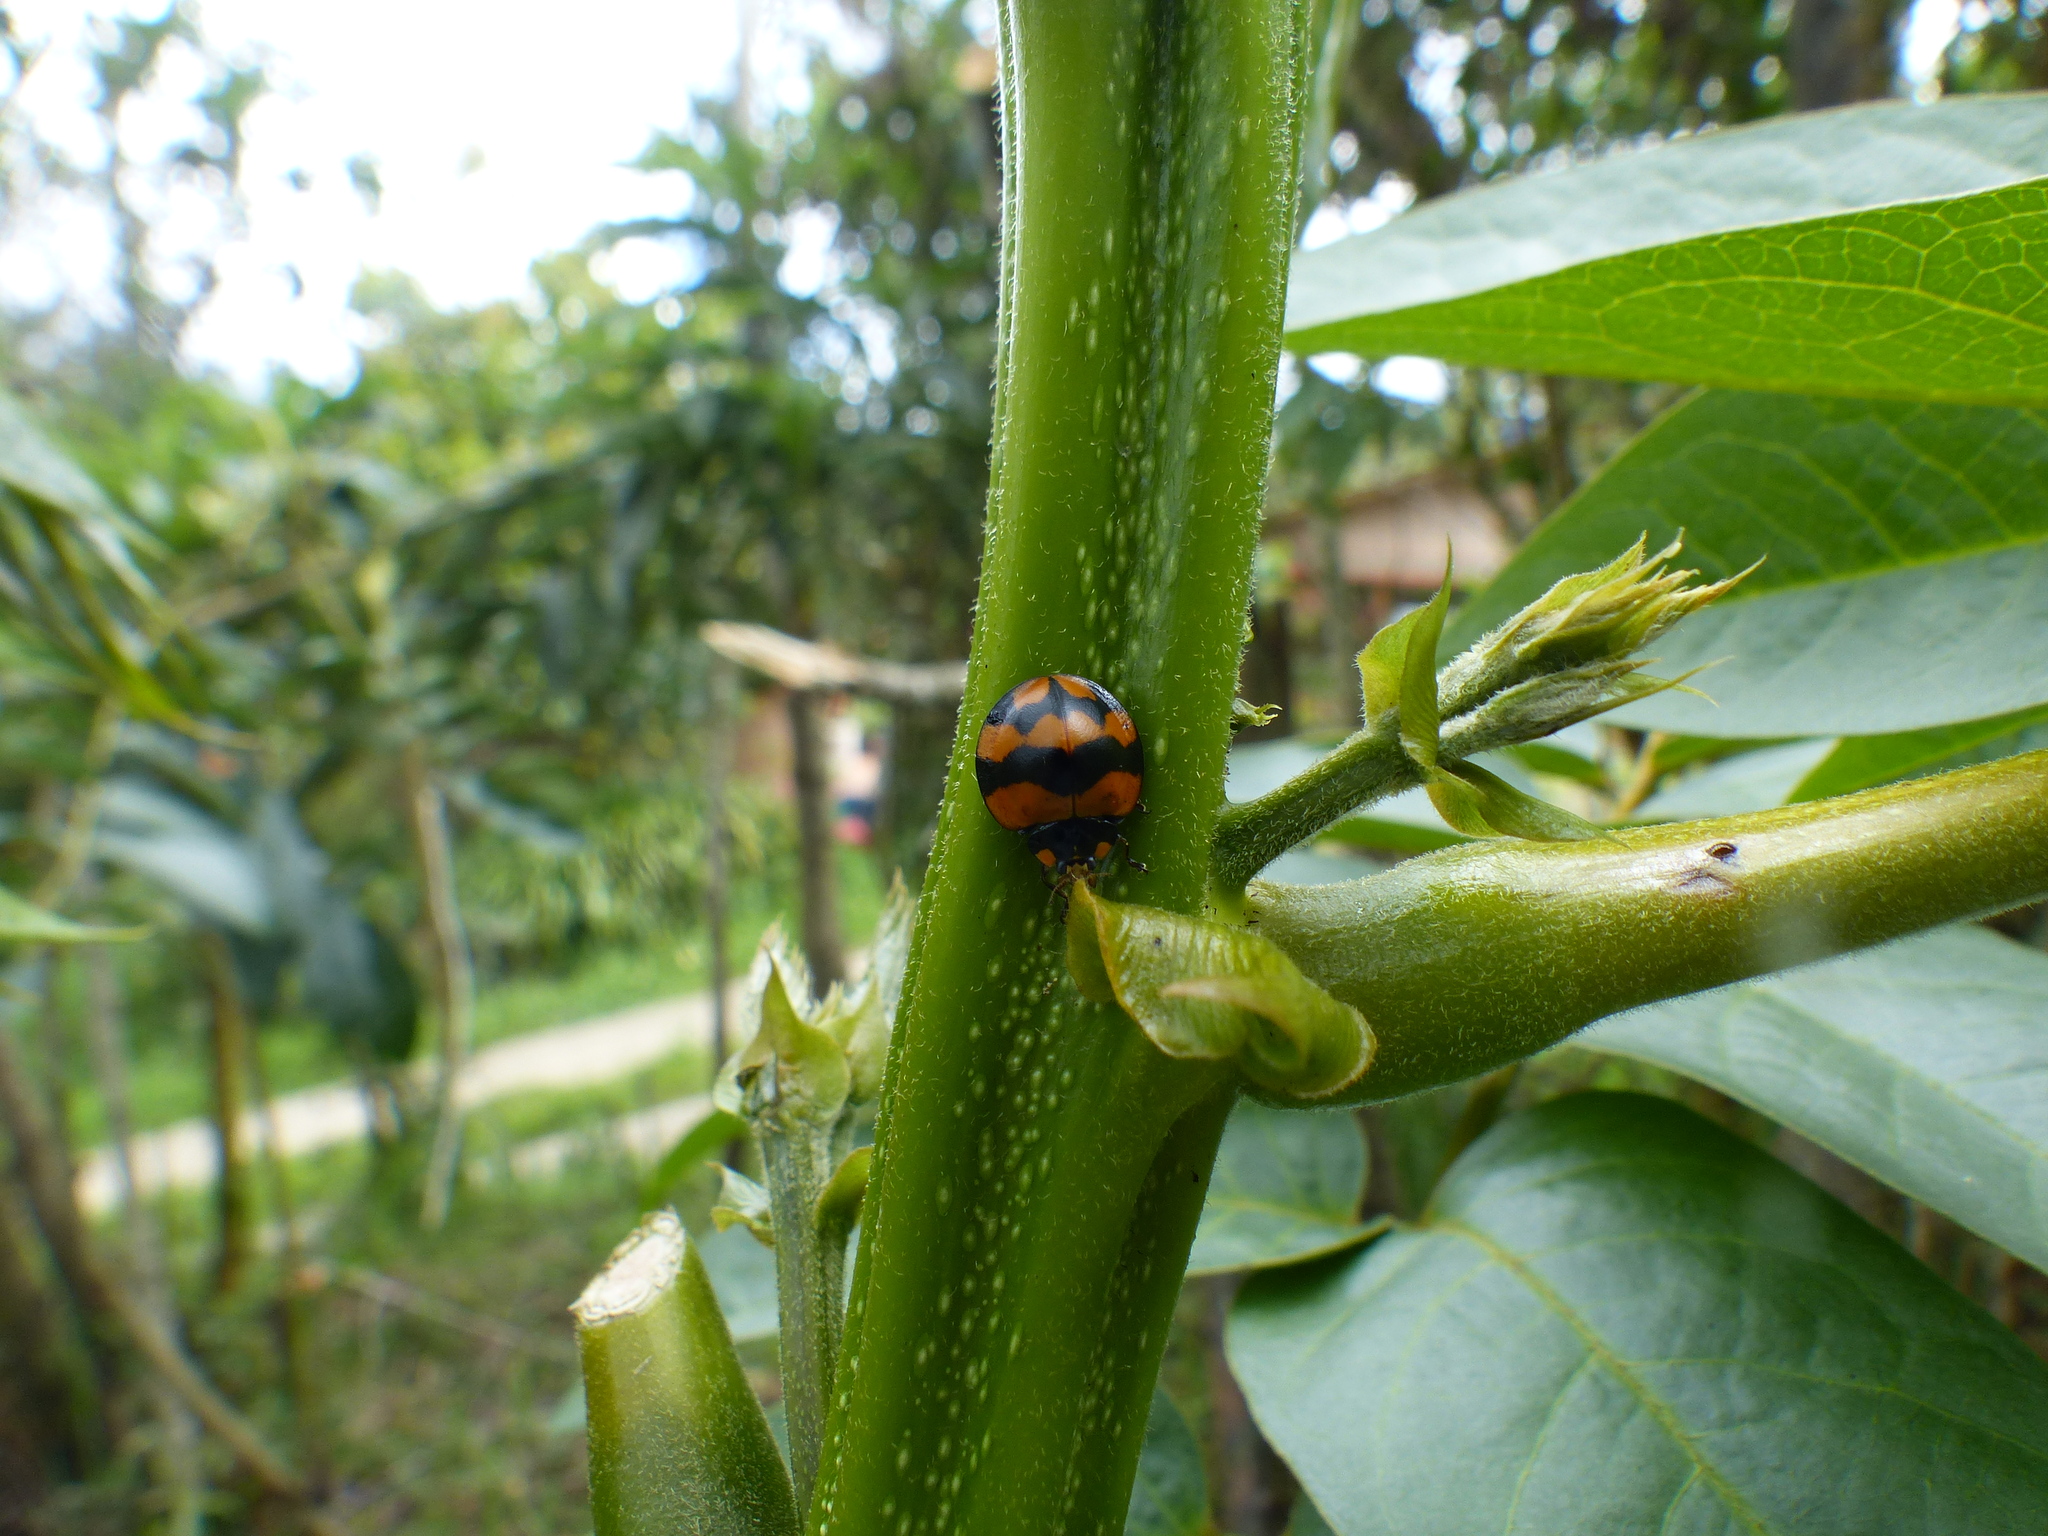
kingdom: Animalia
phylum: Arthropoda
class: Insecta
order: Coleoptera
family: Coccinellidae
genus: Neda
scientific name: Neda norrisi
